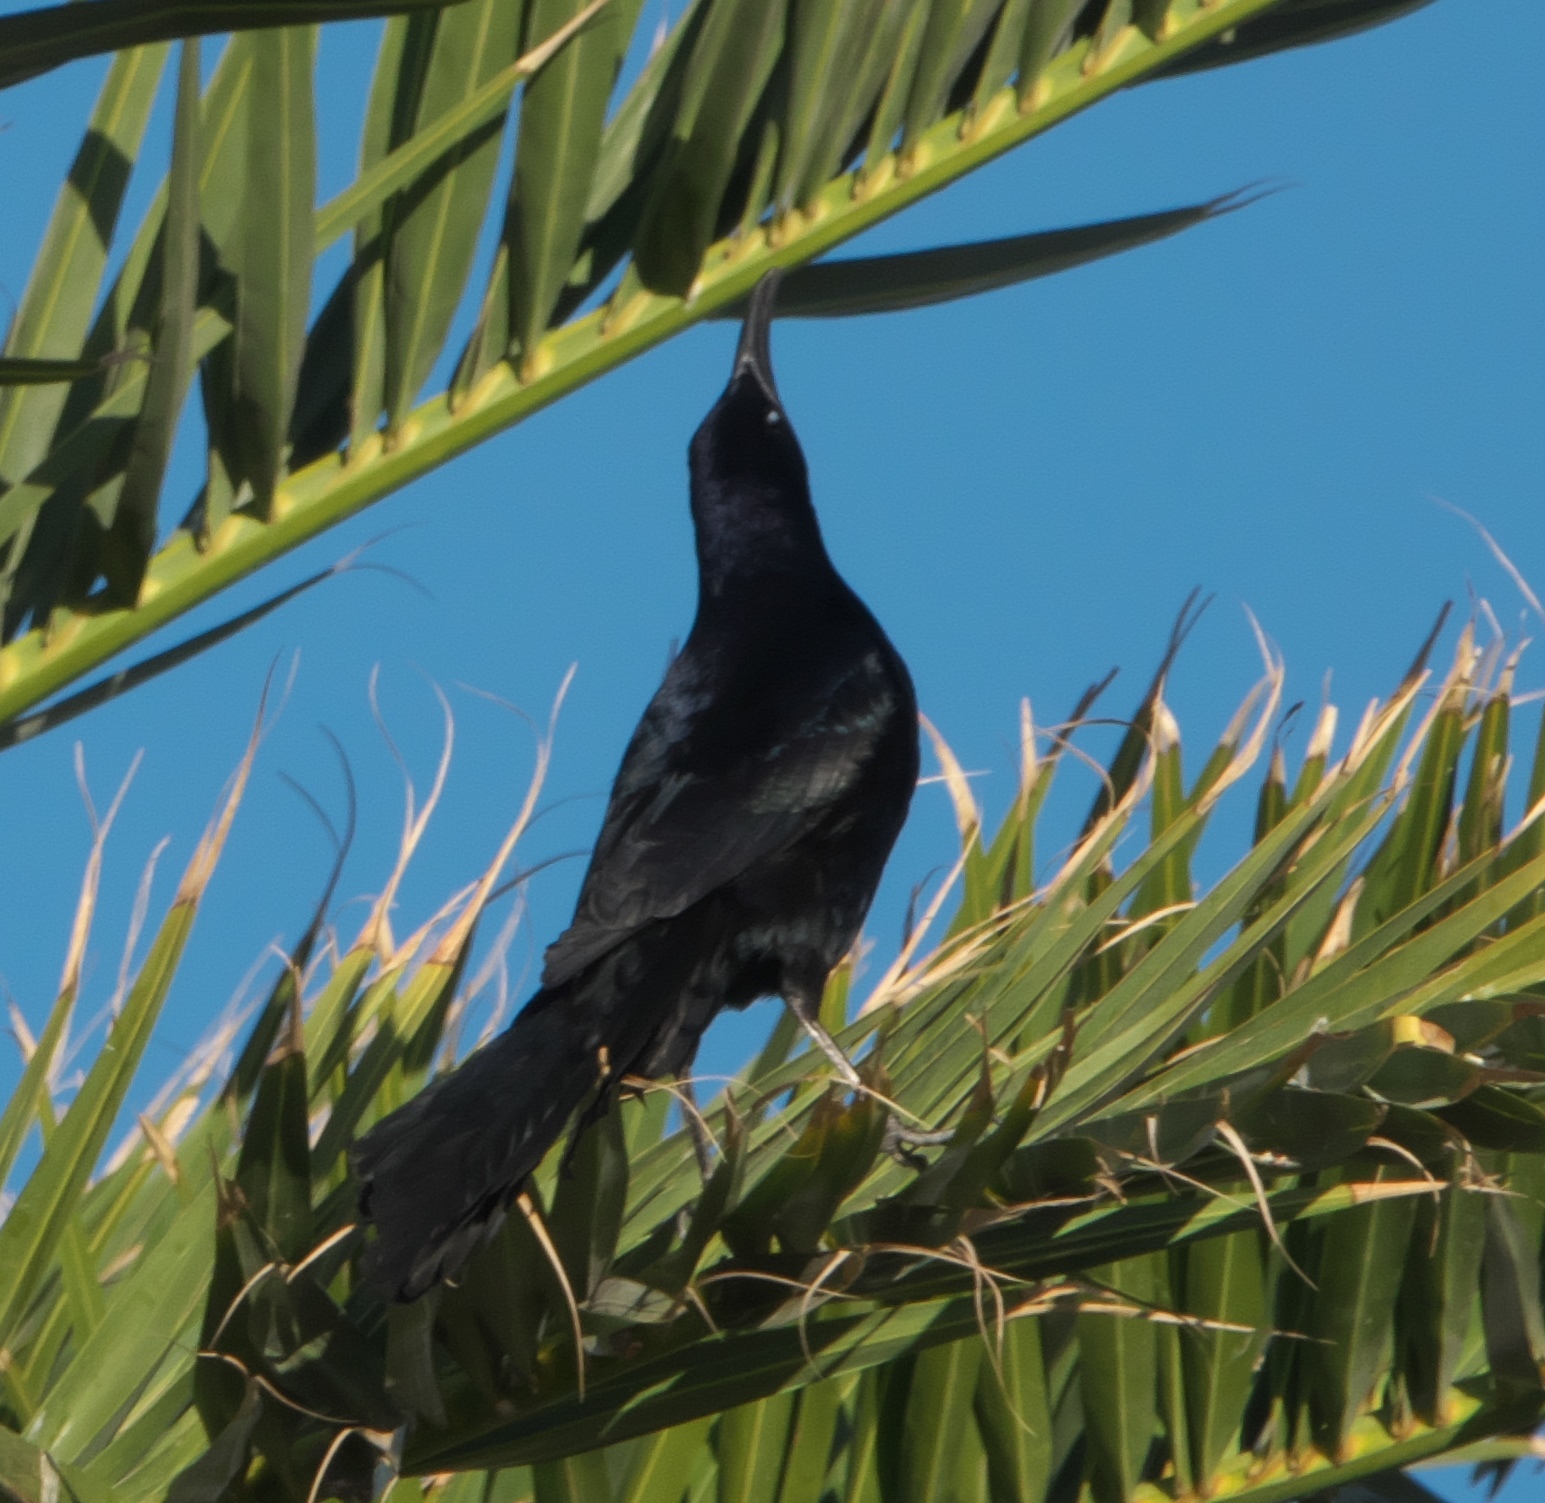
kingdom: Animalia
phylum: Chordata
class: Aves
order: Passeriformes
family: Icteridae
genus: Quiscalus
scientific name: Quiscalus mexicanus
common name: Great-tailed grackle
